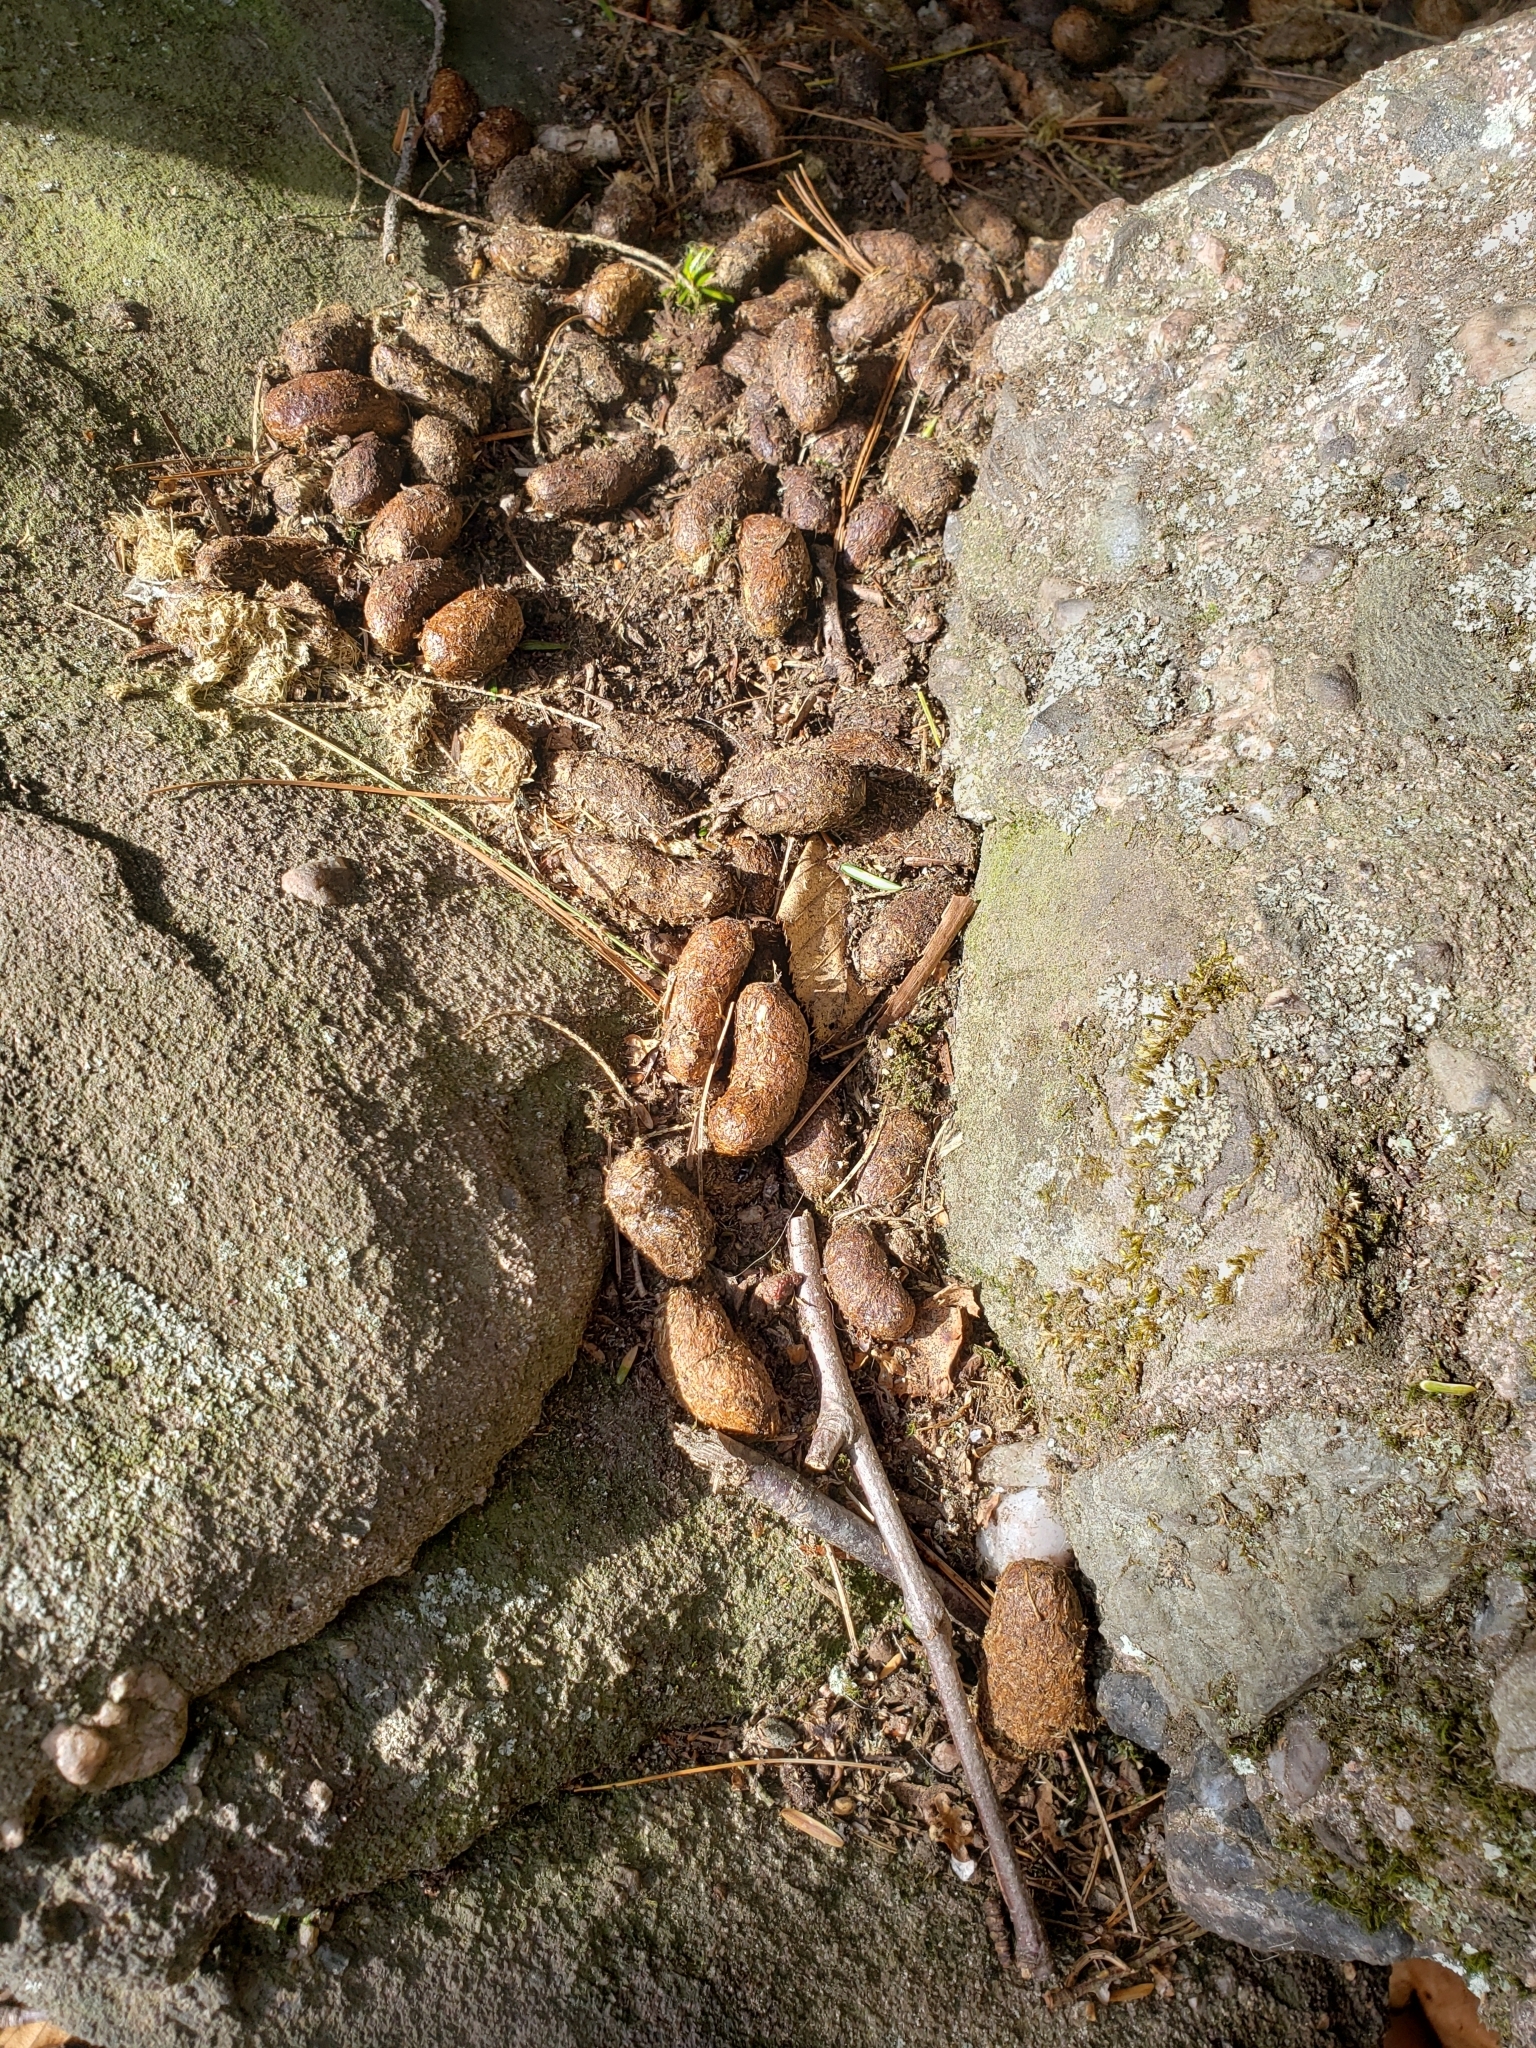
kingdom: Animalia
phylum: Chordata
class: Mammalia
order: Rodentia
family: Erethizontidae
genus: Erethizon
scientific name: Erethizon dorsatus
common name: North american porcupine
